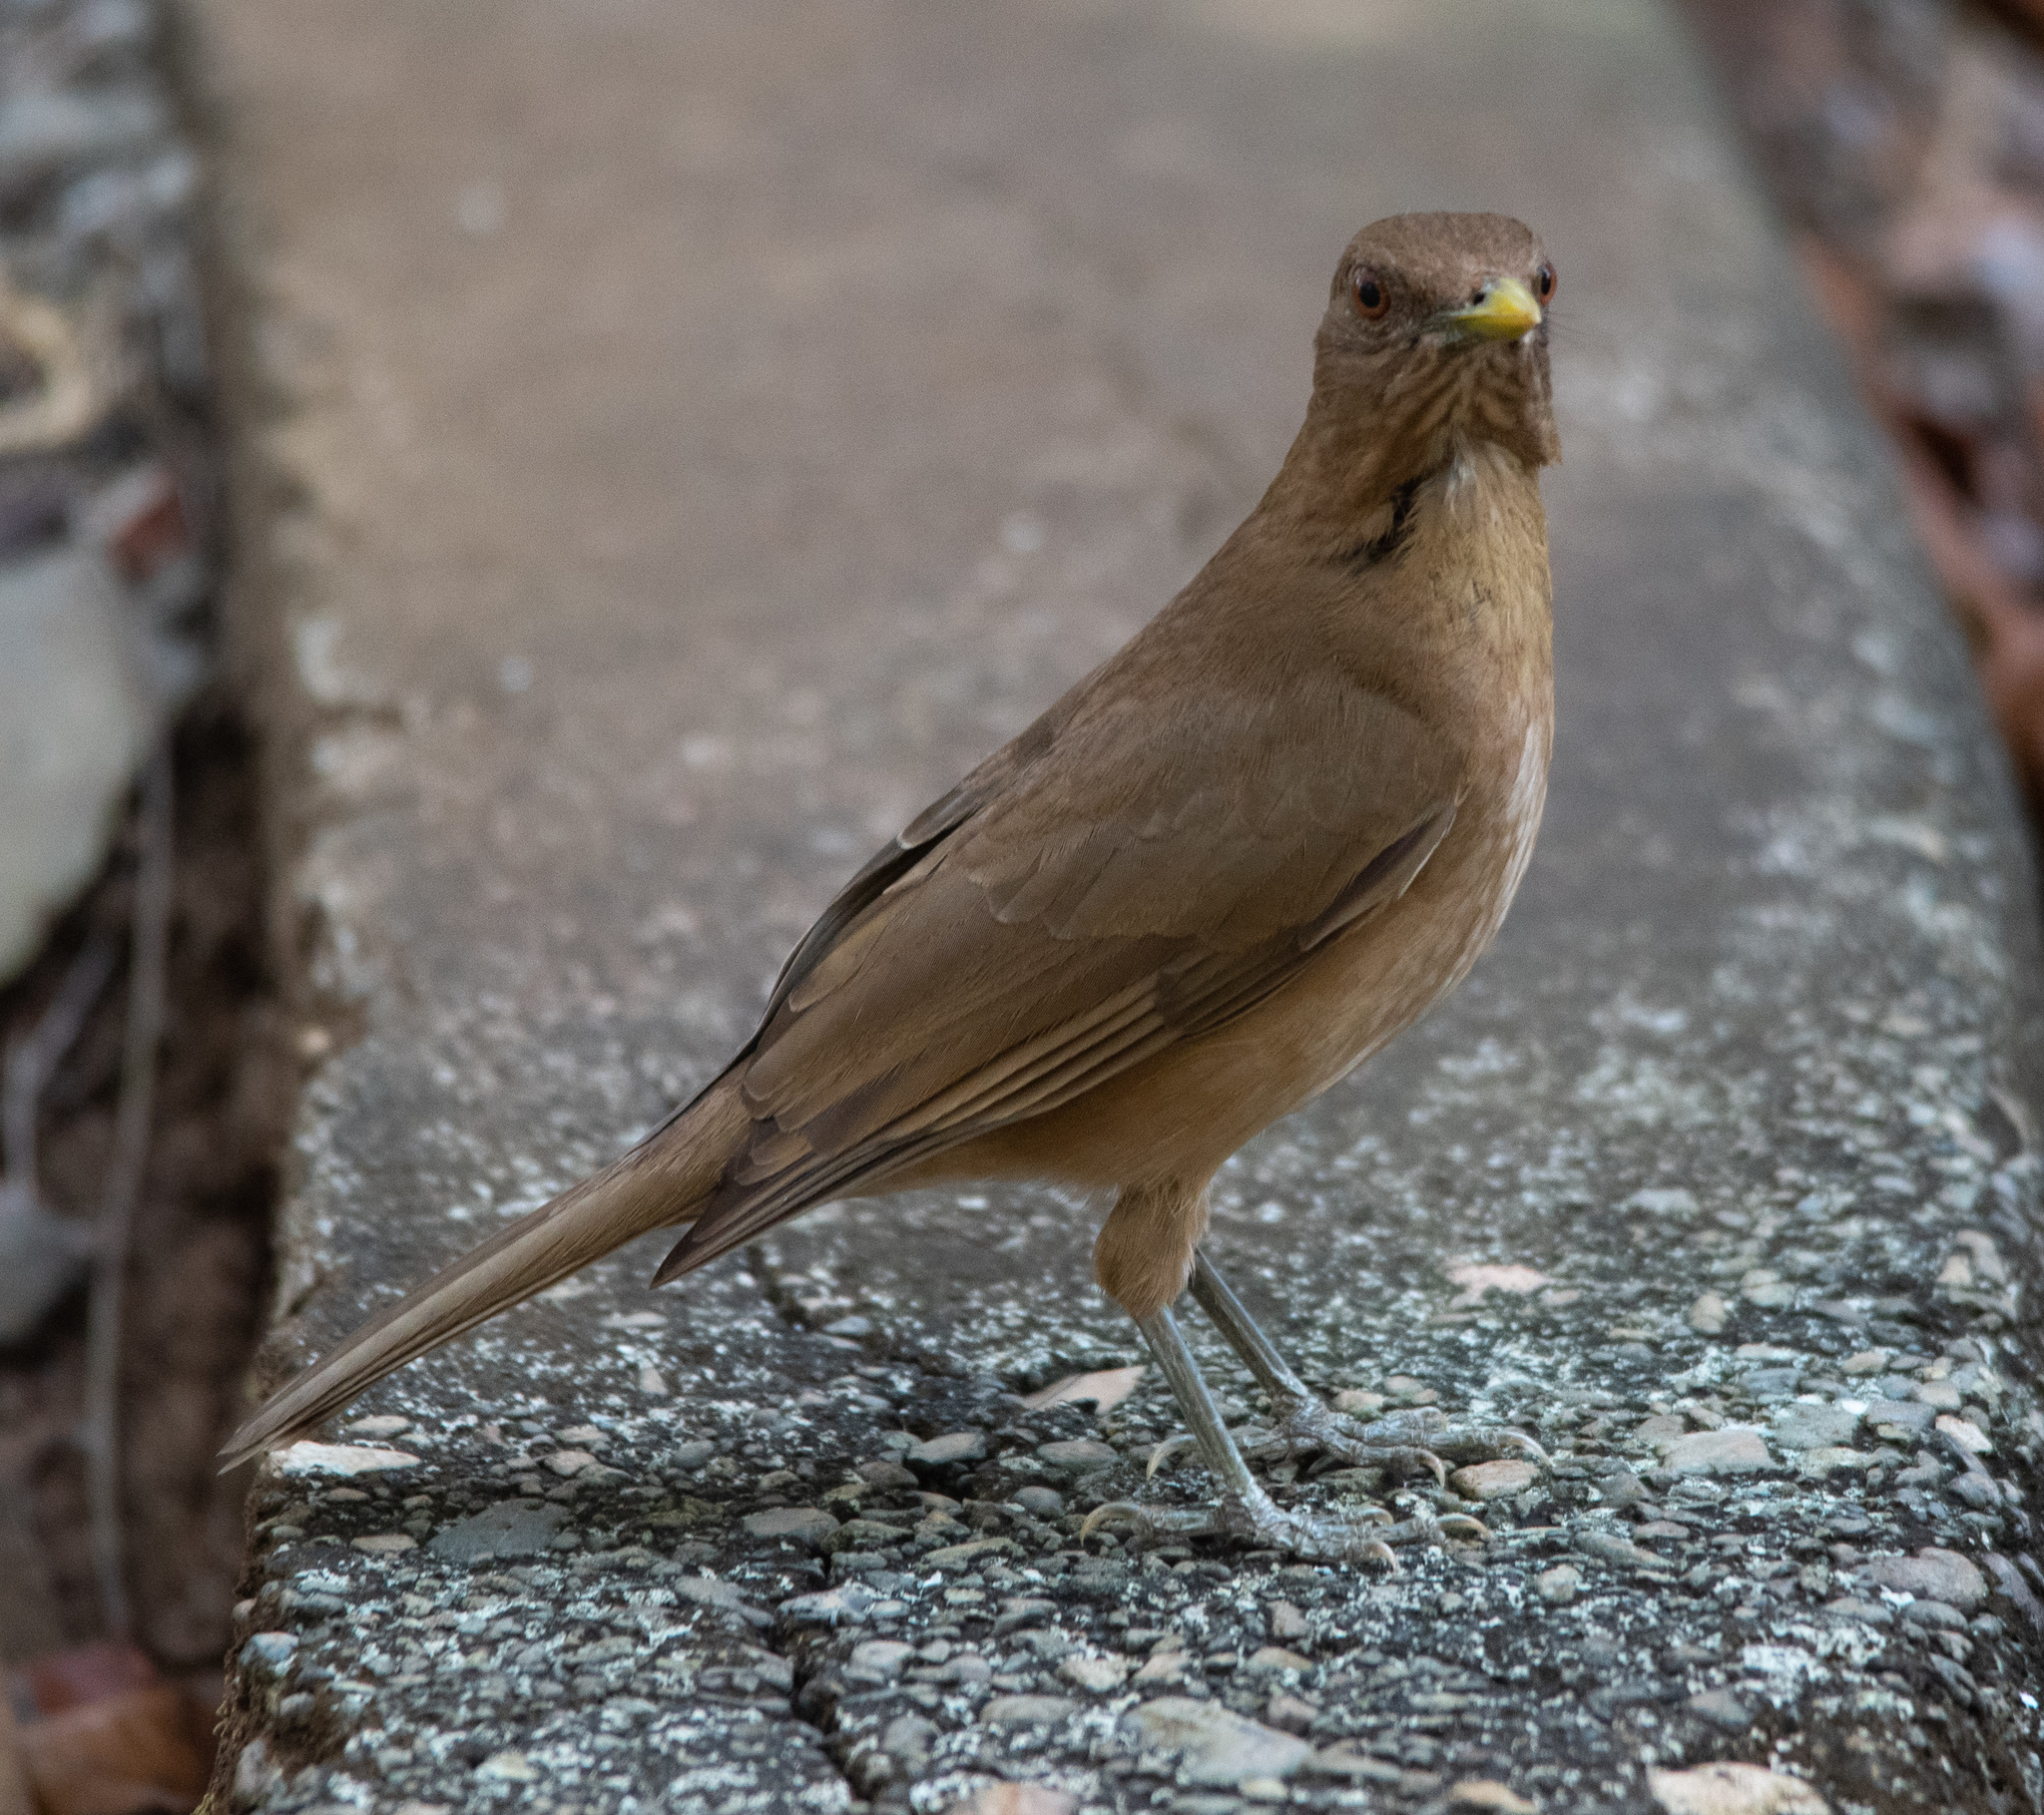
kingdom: Animalia
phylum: Chordata
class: Aves
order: Passeriformes
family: Turdidae
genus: Turdus
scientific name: Turdus grayi
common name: Clay-colored thrush
